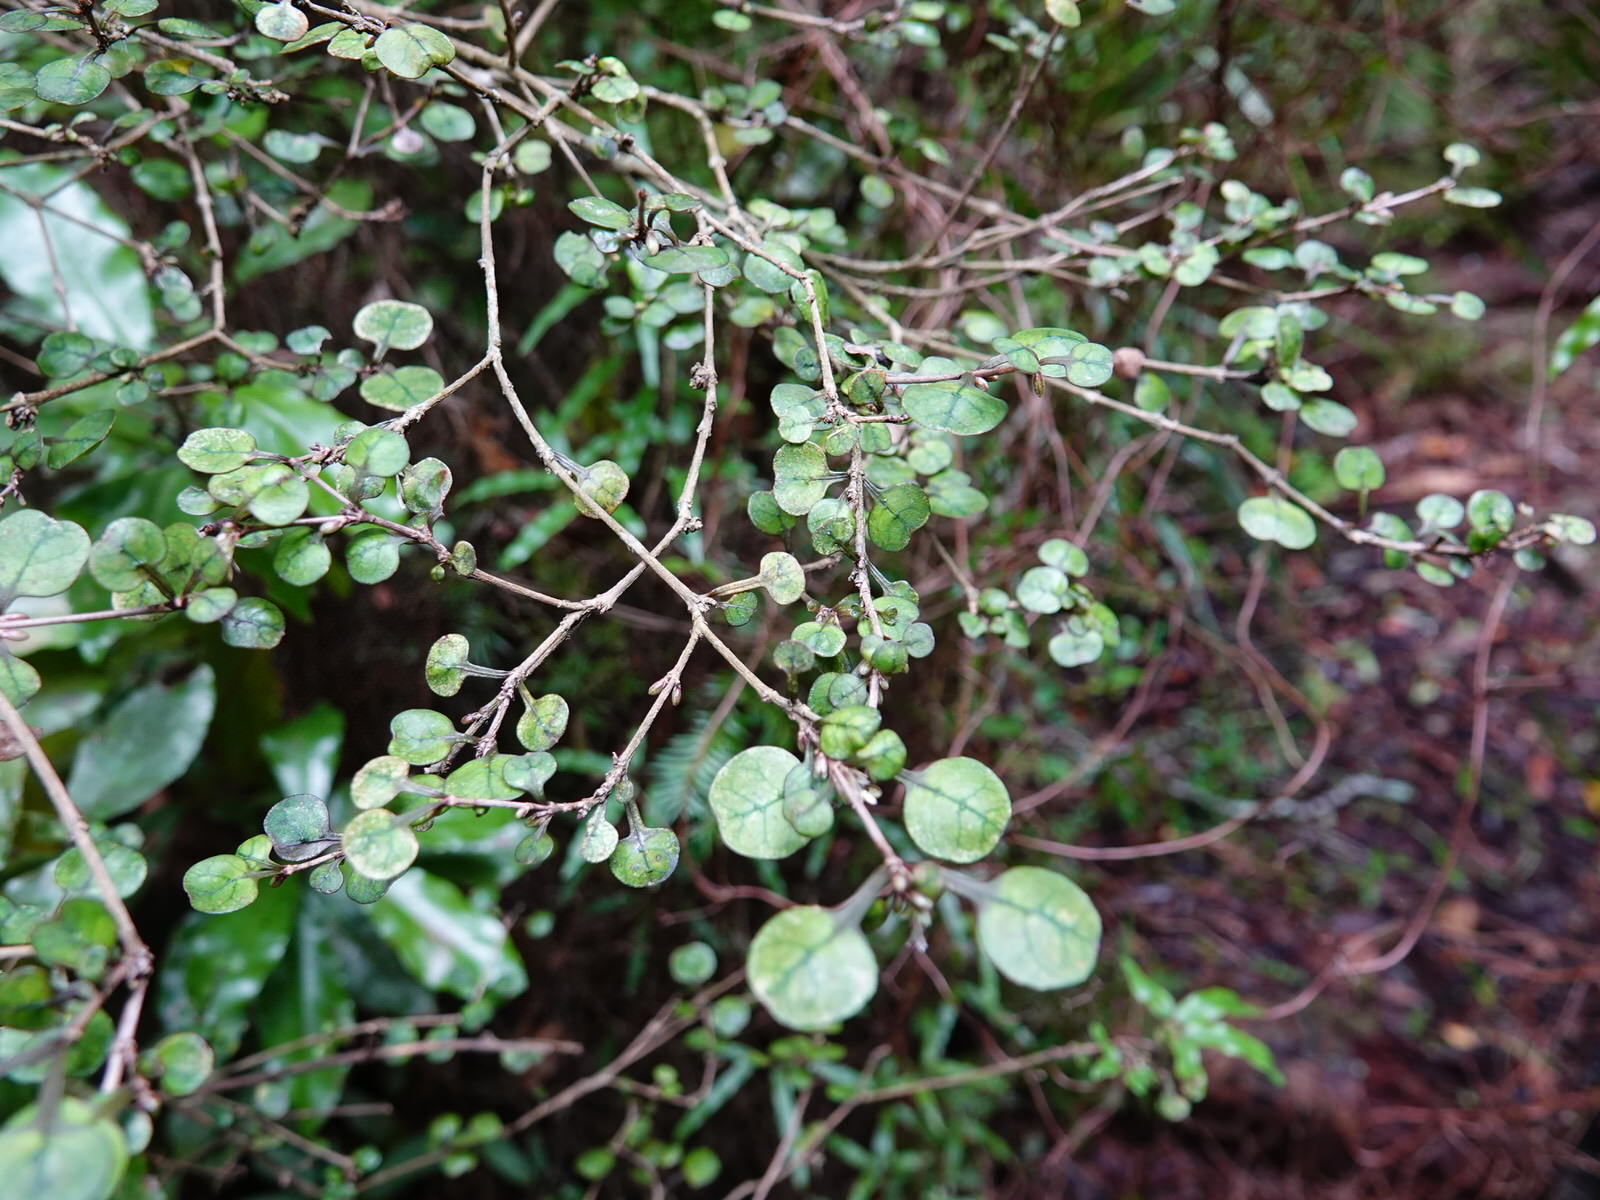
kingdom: Plantae
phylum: Tracheophyta
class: Magnoliopsida
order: Gentianales
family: Rubiaceae
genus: Coprosma
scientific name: Coprosma spathulata
